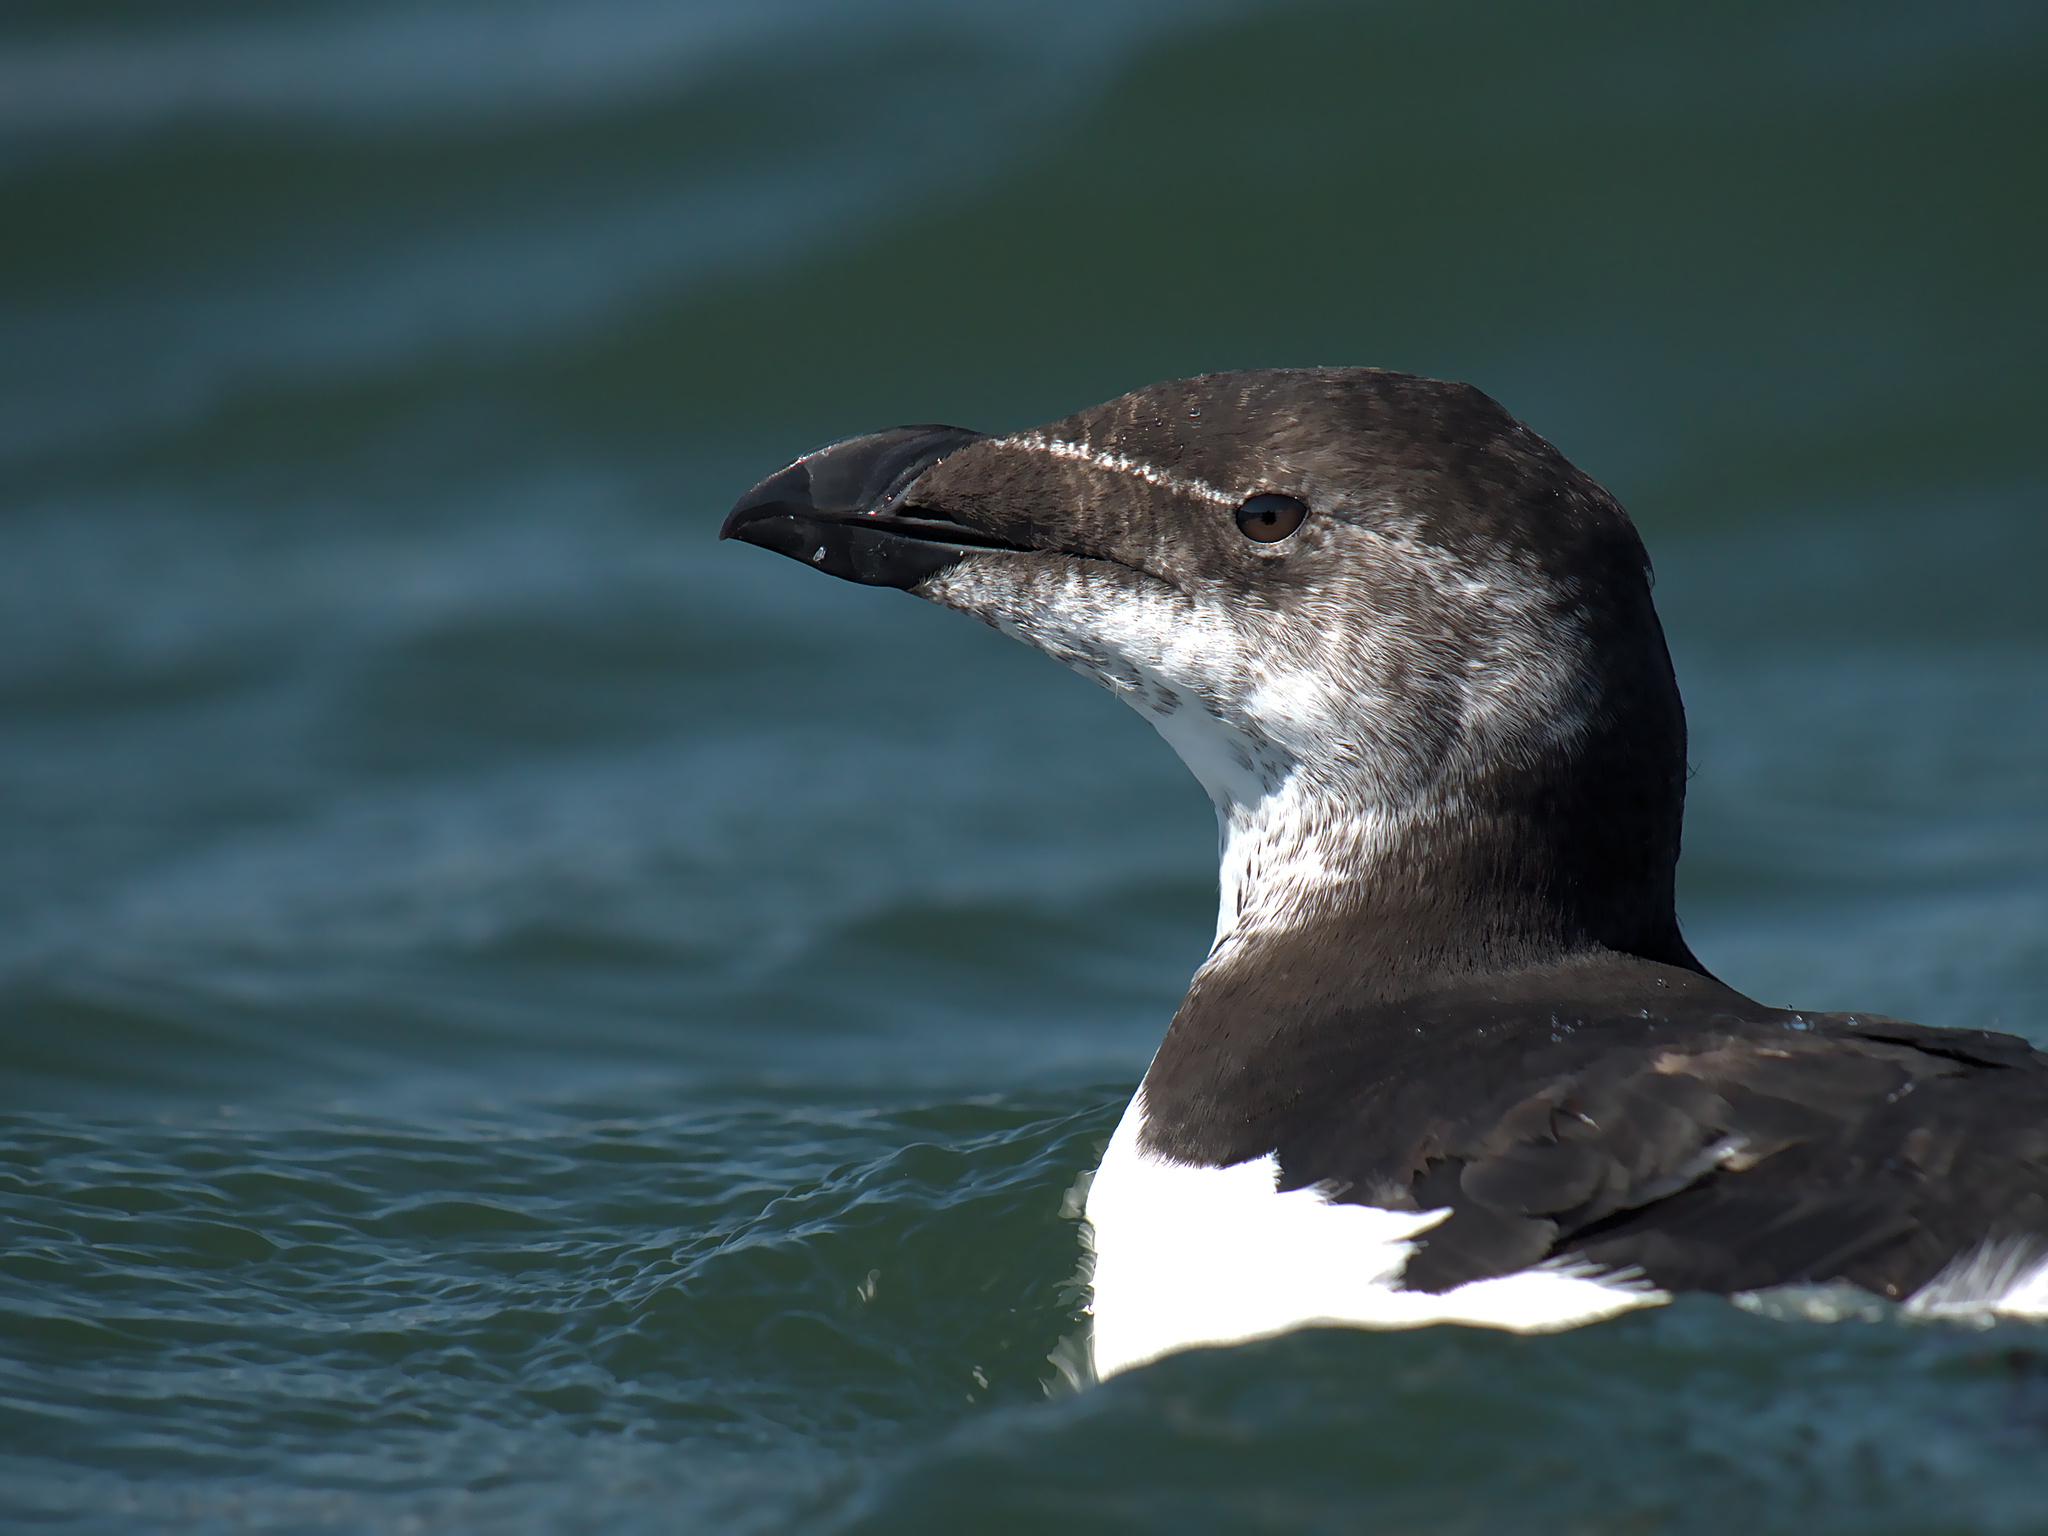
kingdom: Animalia
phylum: Chordata
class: Aves
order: Charadriiformes
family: Alcidae
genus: Alca
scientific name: Alca torda
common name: Razorbill
